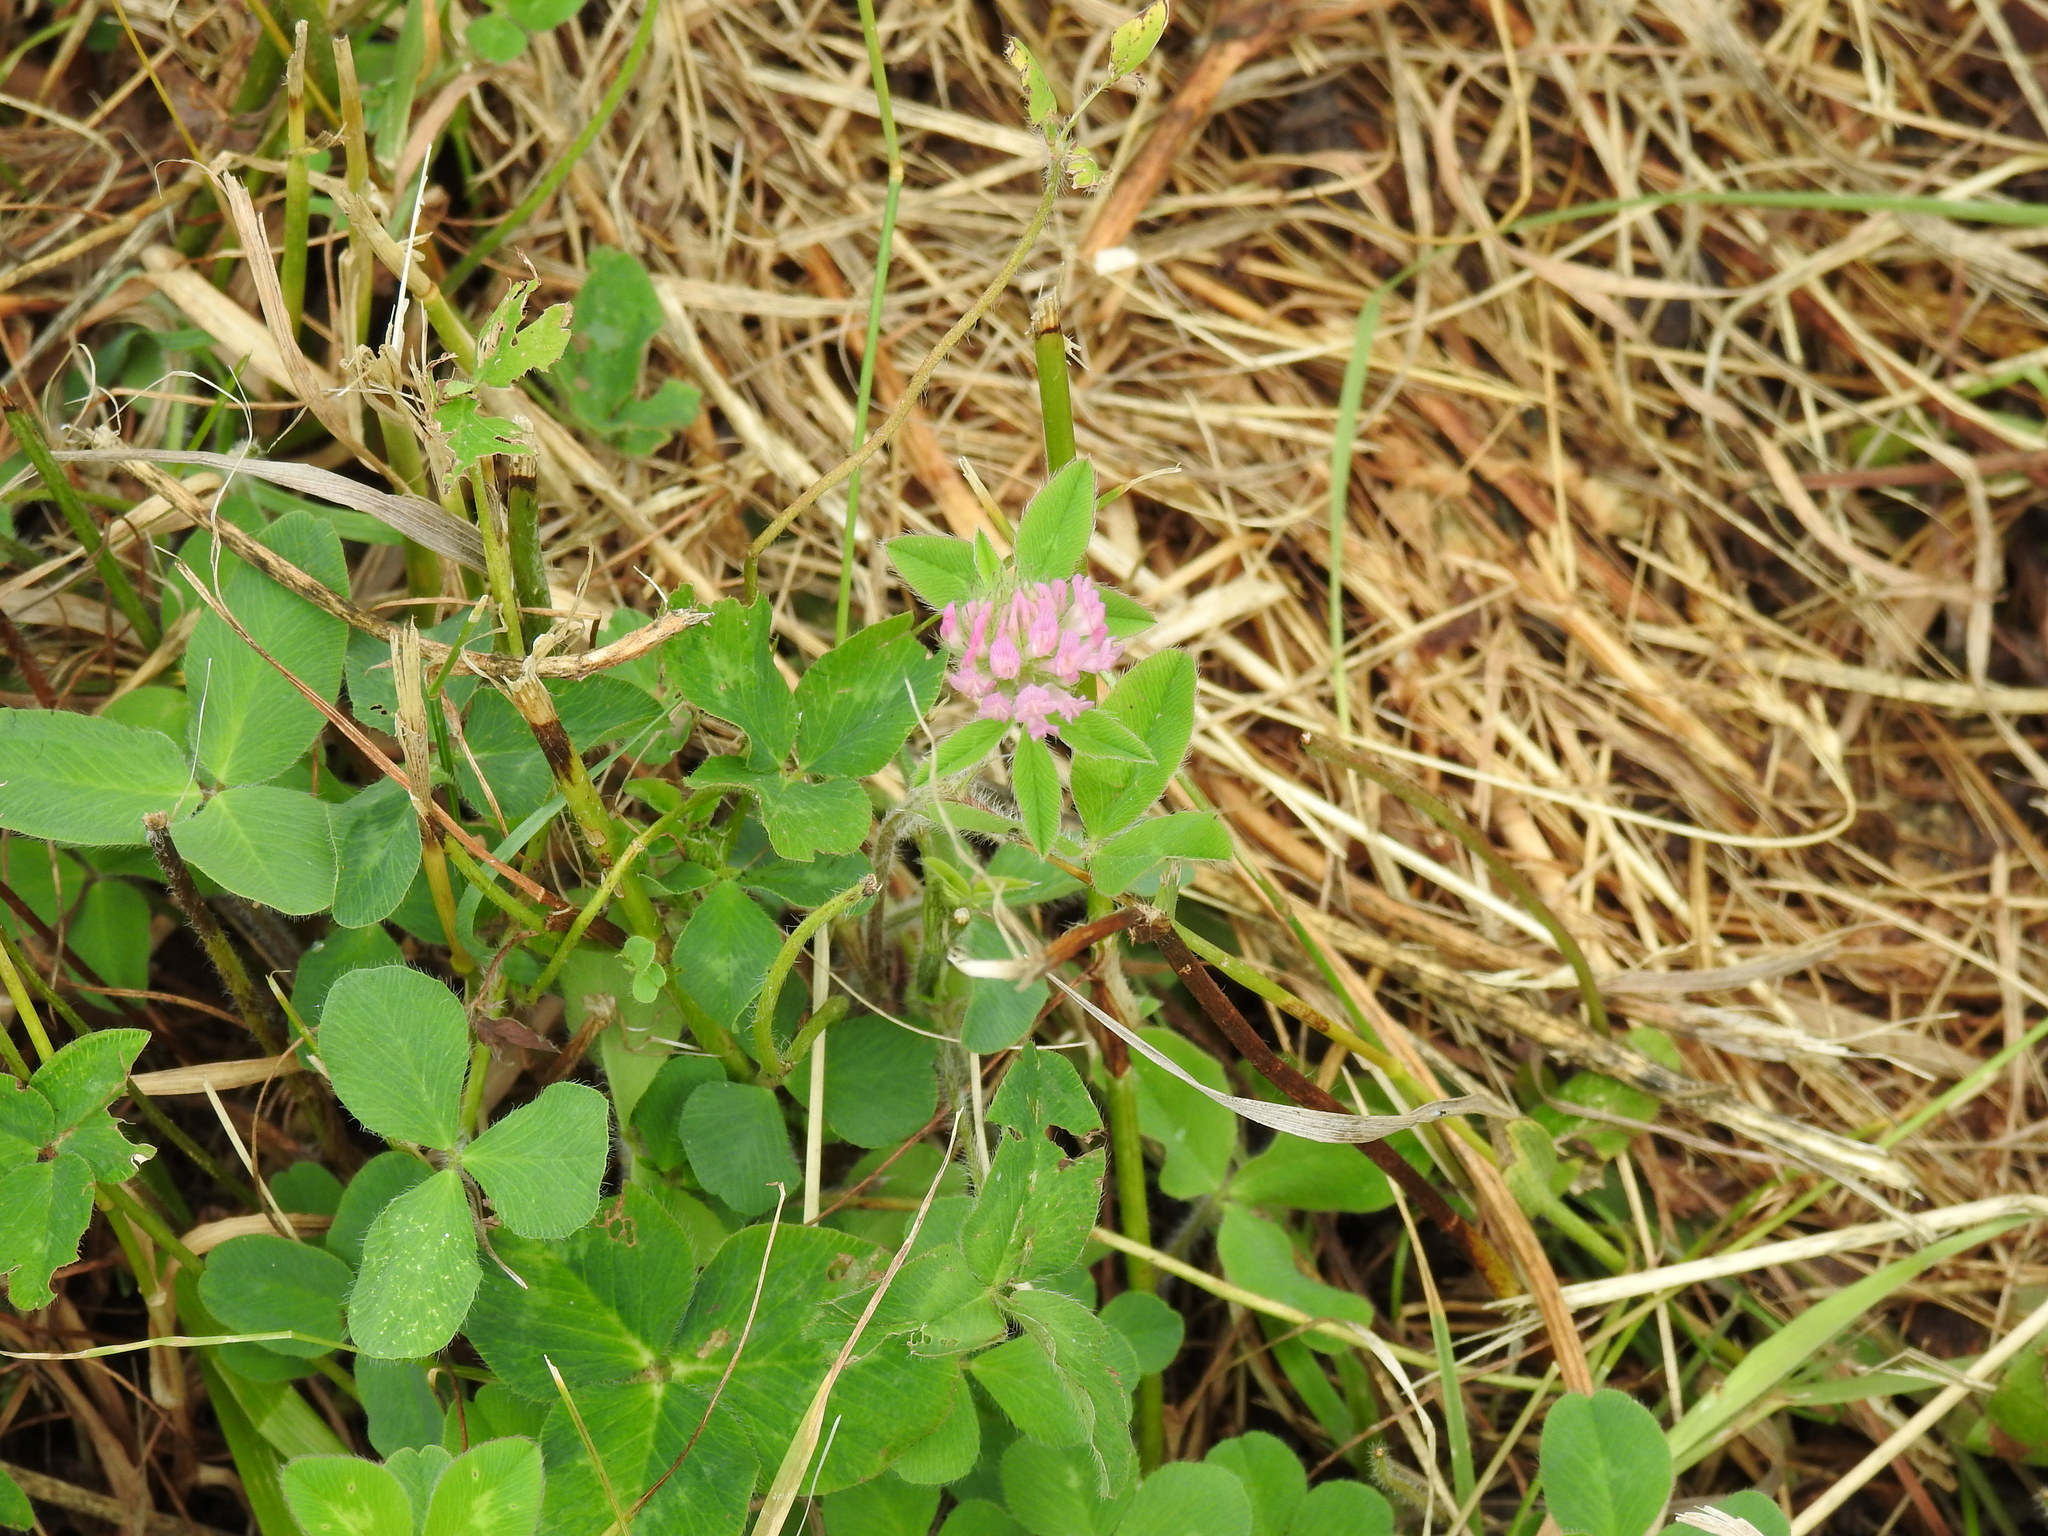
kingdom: Plantae
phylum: Tracheophyta
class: Magnoliopsida
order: Fabales
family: Fabaceae
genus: Trifolium
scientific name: Trifolium pratense
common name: Red clover
